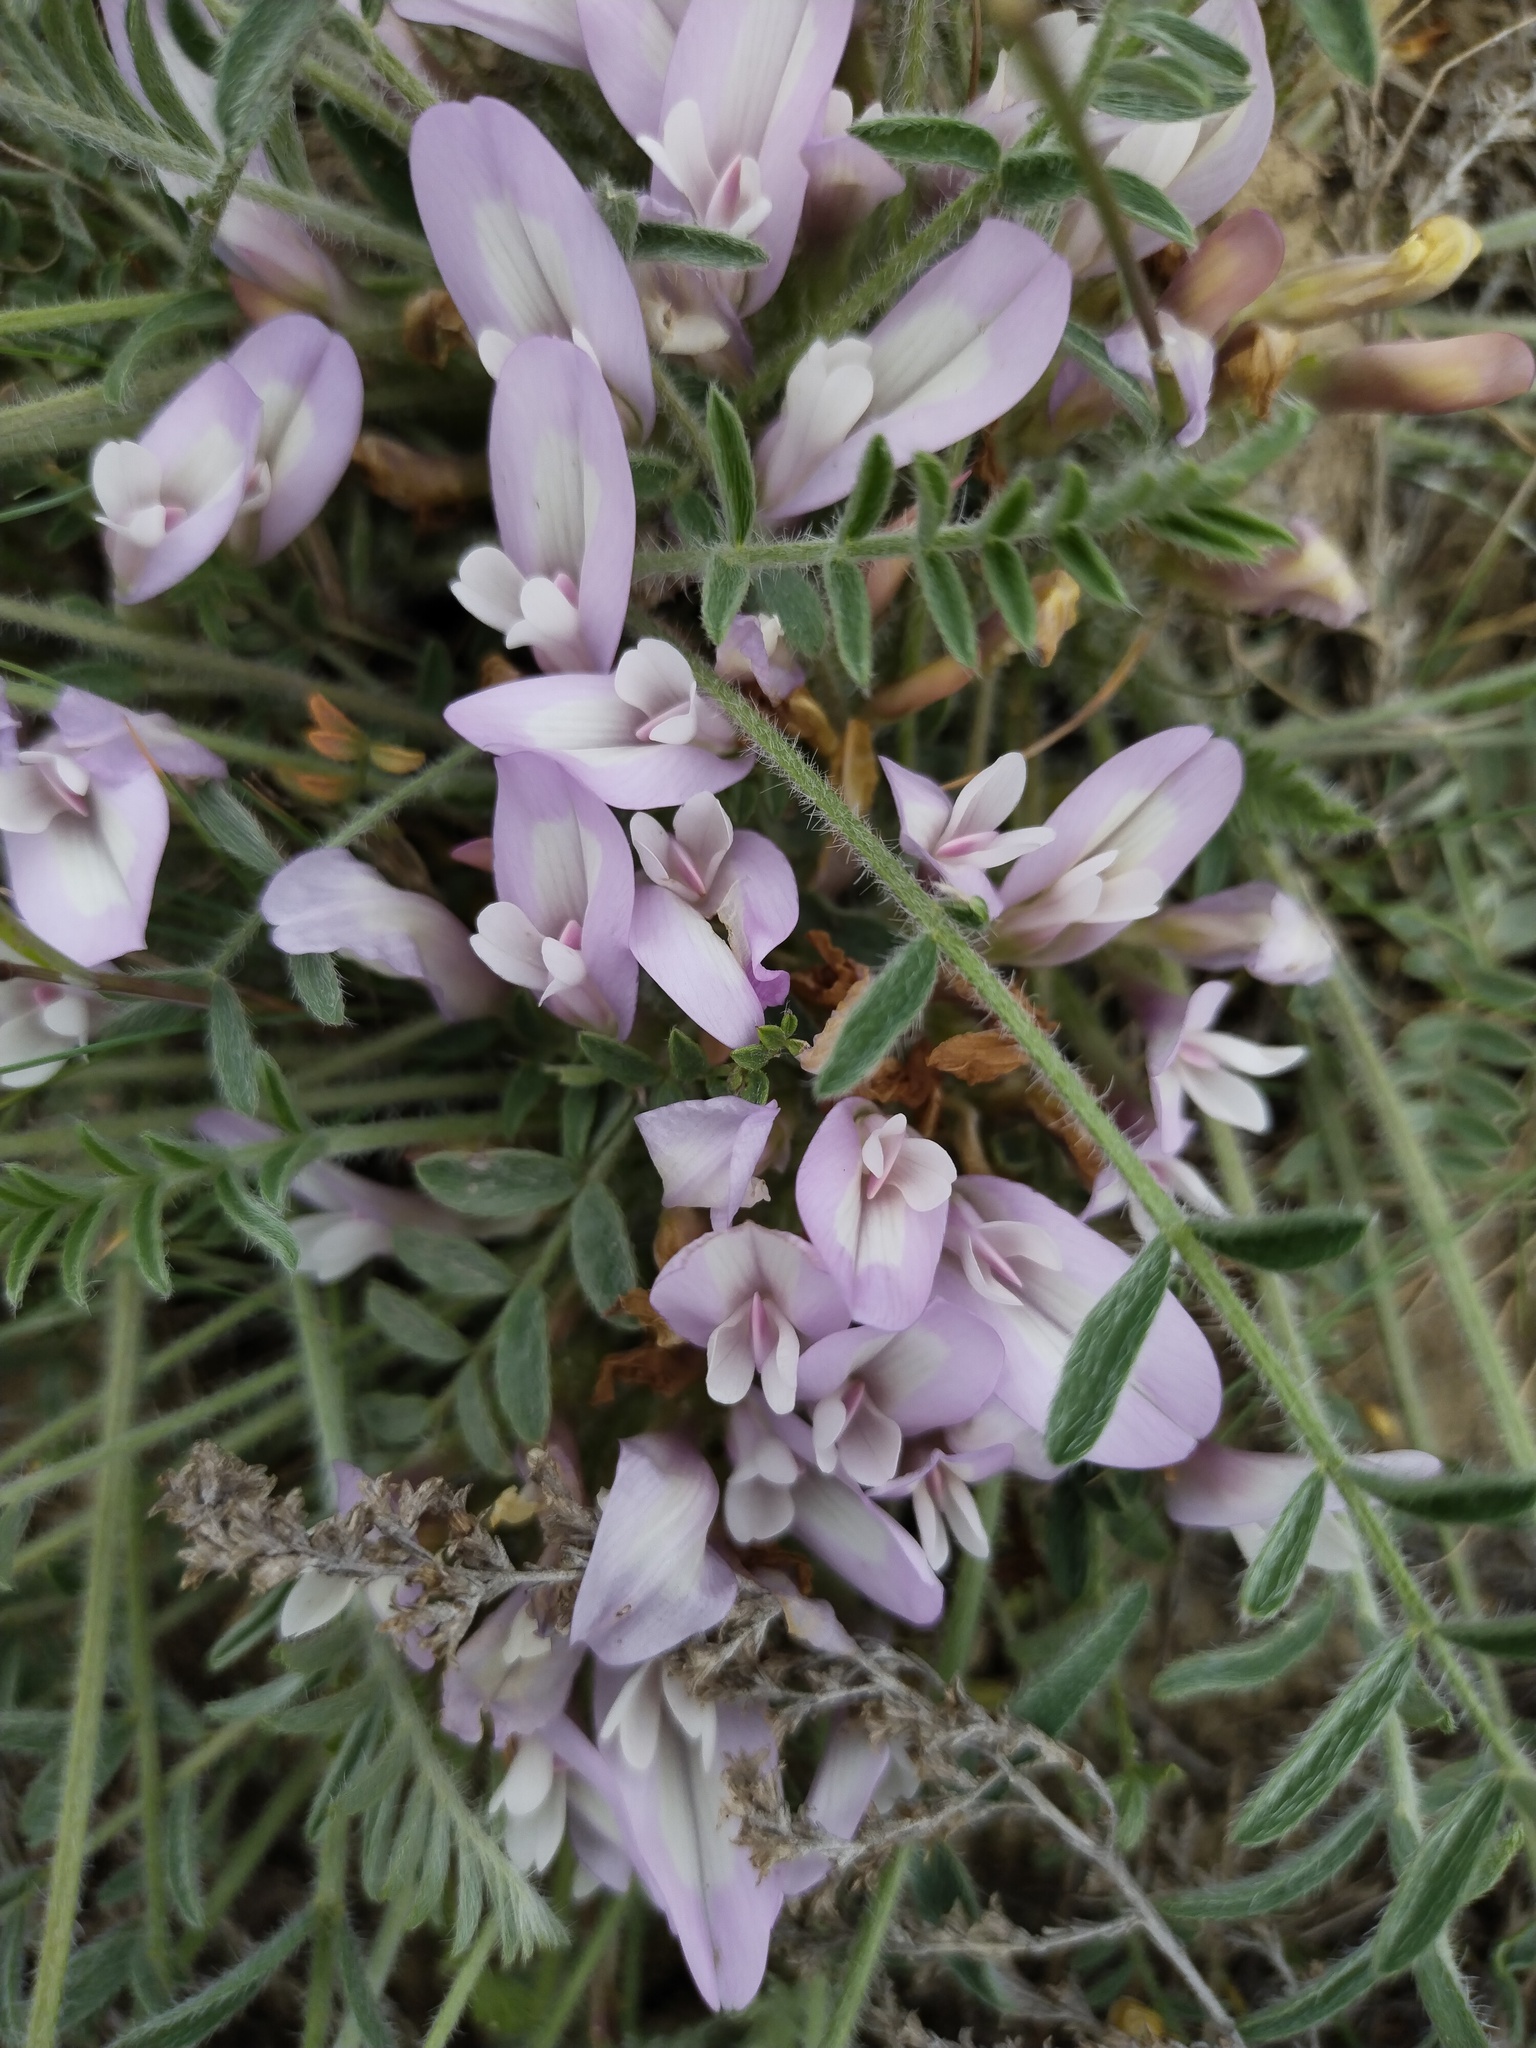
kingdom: Plantae
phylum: Tracheophyta
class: Magnoliopsida
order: Fabales
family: Fabaceae
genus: Astragalus
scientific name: Astragalus dolichophyllus
